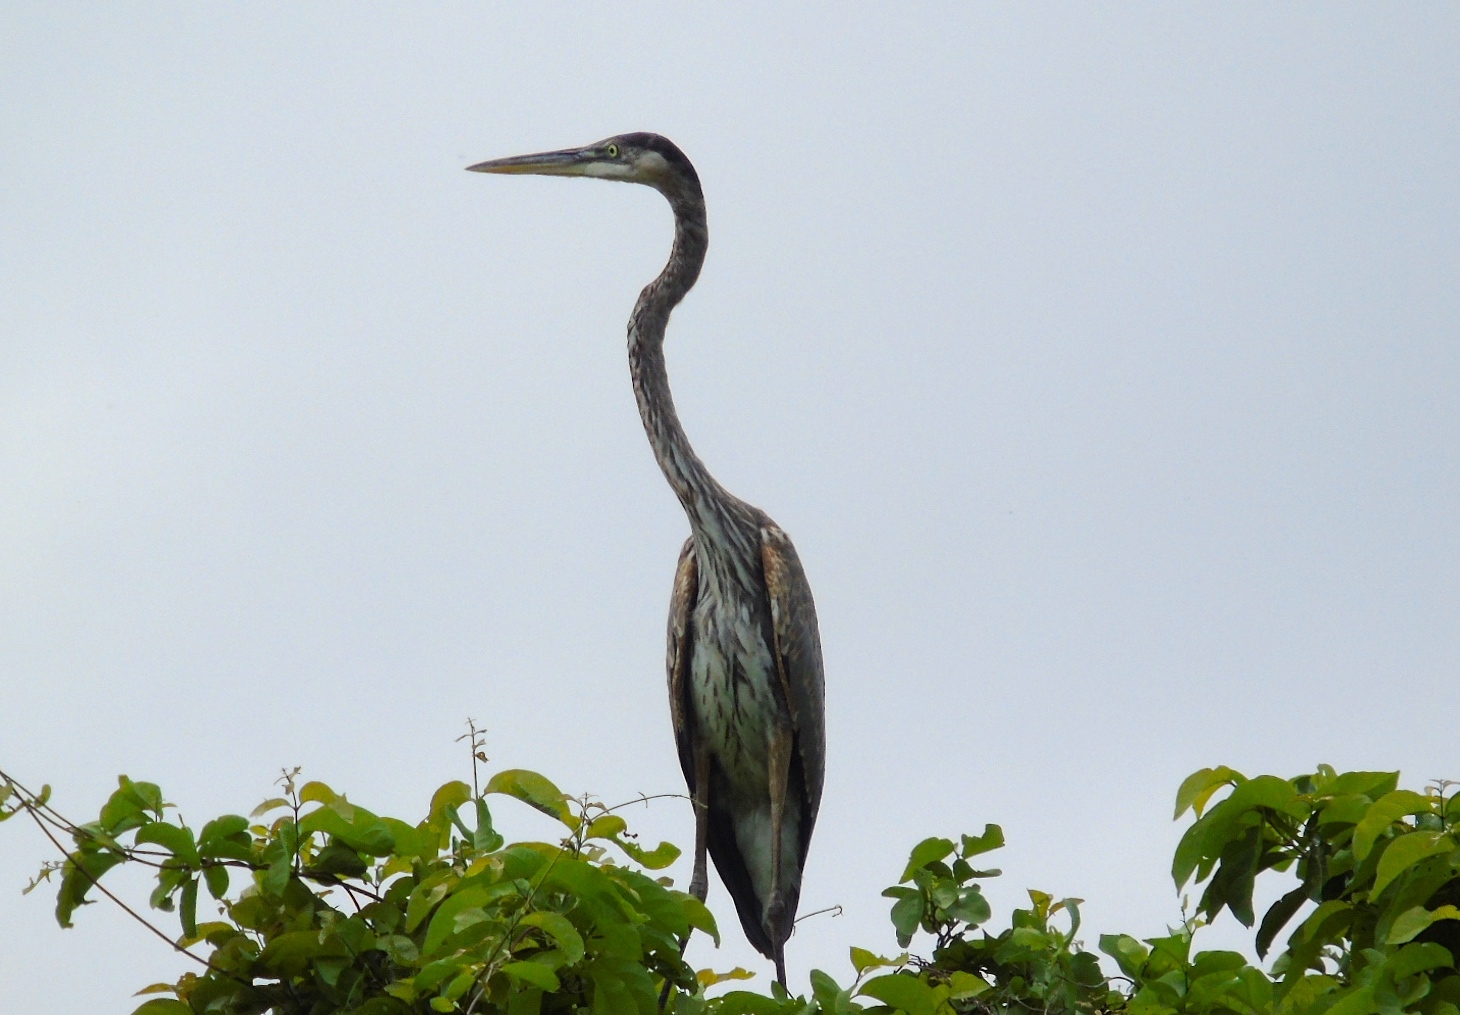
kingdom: Animalia
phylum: Chordata
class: Aves
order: Pelecaniformes
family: Ardeidae
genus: Ardea
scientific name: Ardea herodias
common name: Great blue heron
